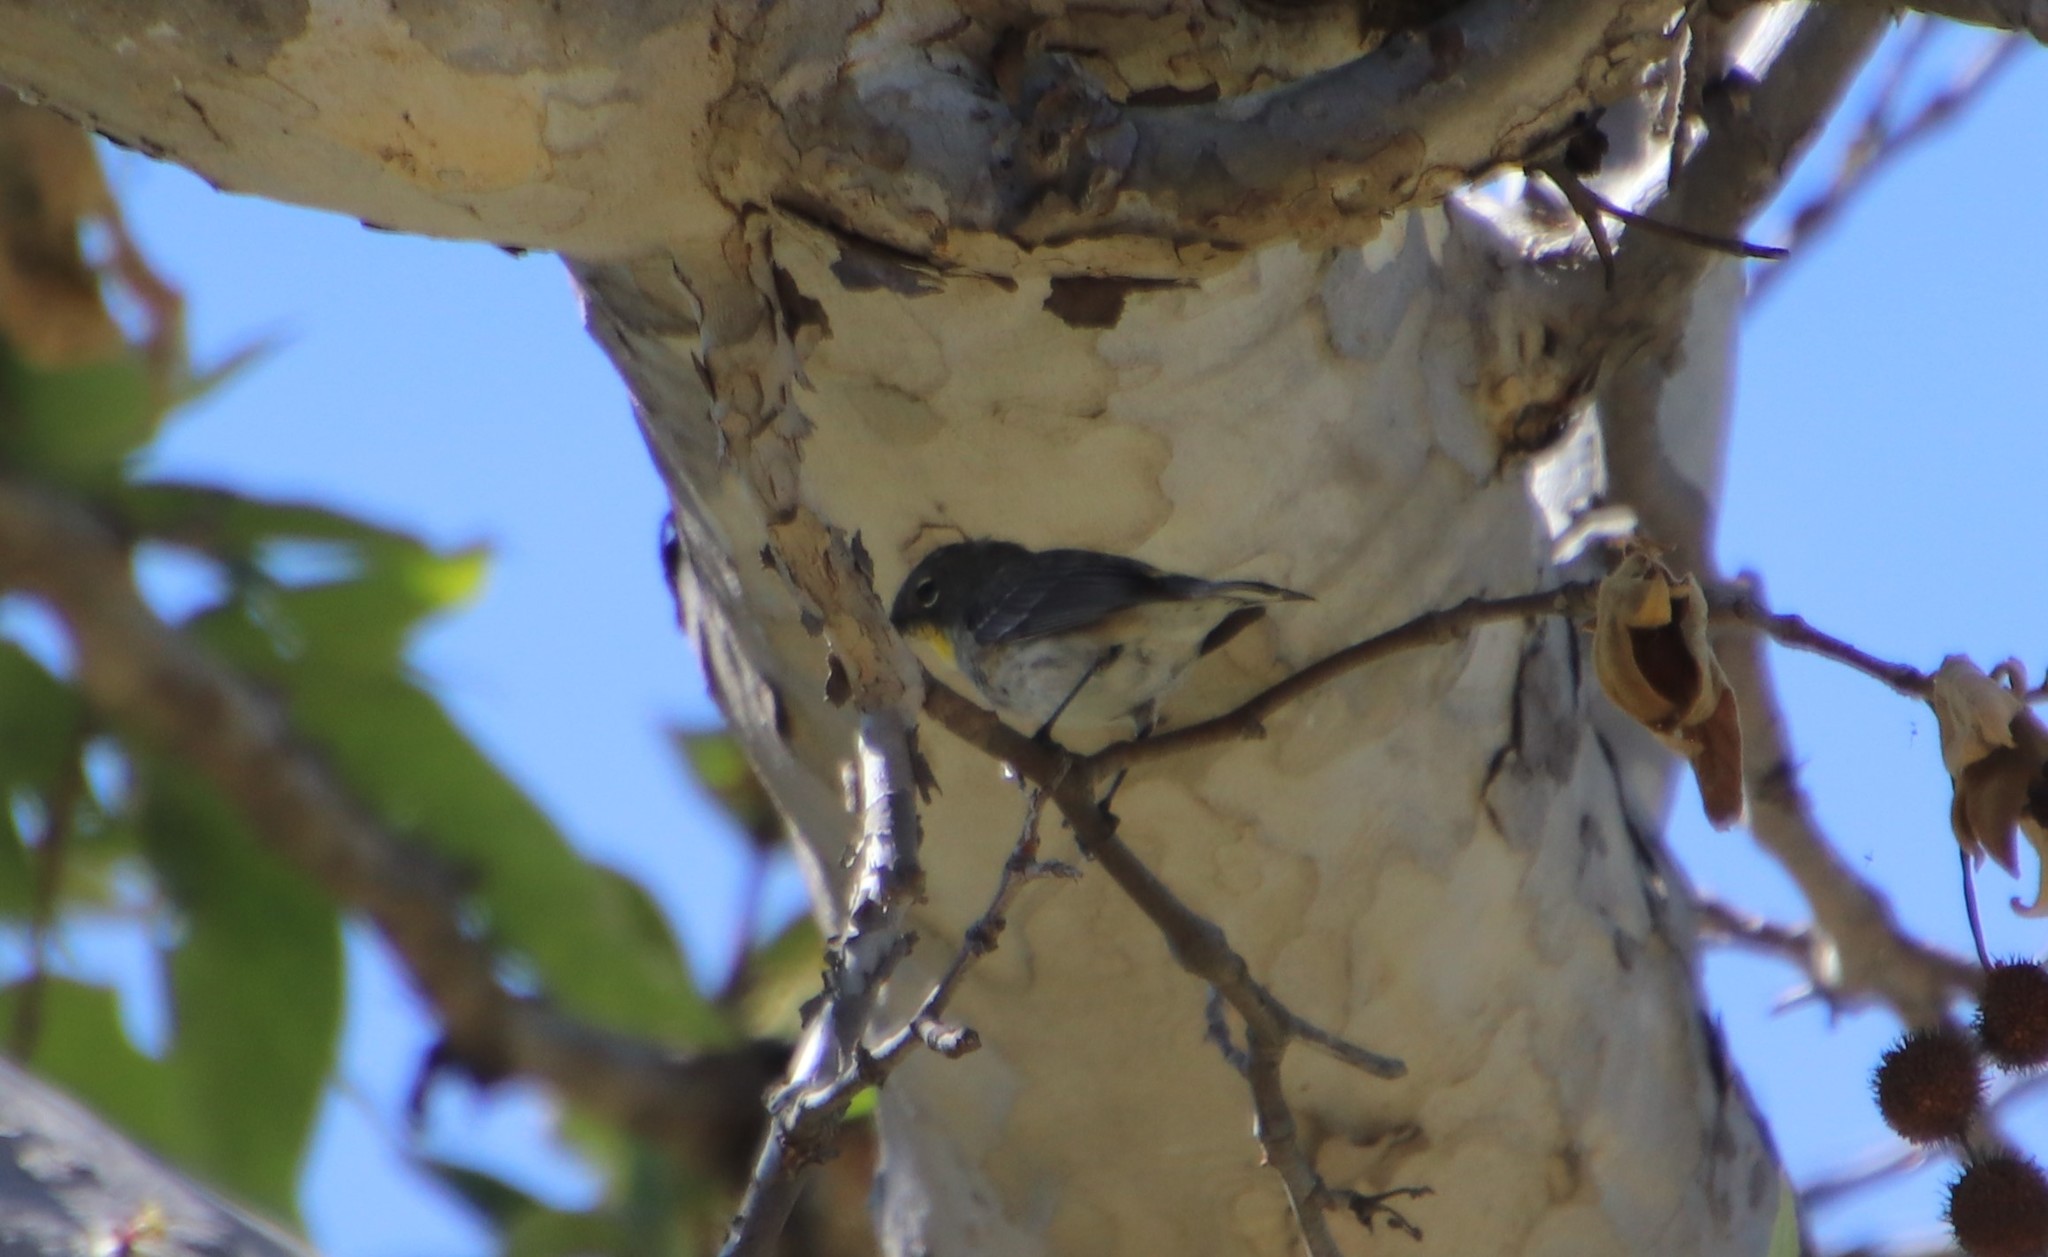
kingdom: Animalia
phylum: Chordata
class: Aves
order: Passeriformes
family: Parulidae
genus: Setophaga
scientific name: Setophaga auduboni
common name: Audubon's warbler
